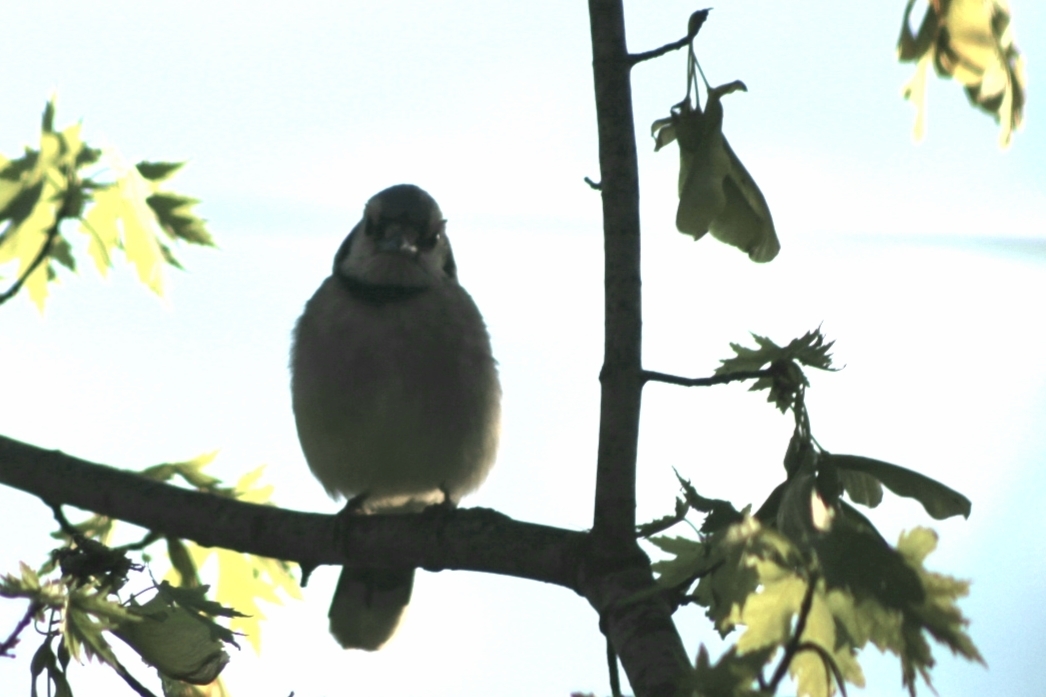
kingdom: Animalia
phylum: Chordata
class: Aves
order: Passeriformes
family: Corvidae
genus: Cyanocitta
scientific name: Cyanocitta cristata
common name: Blue jay
